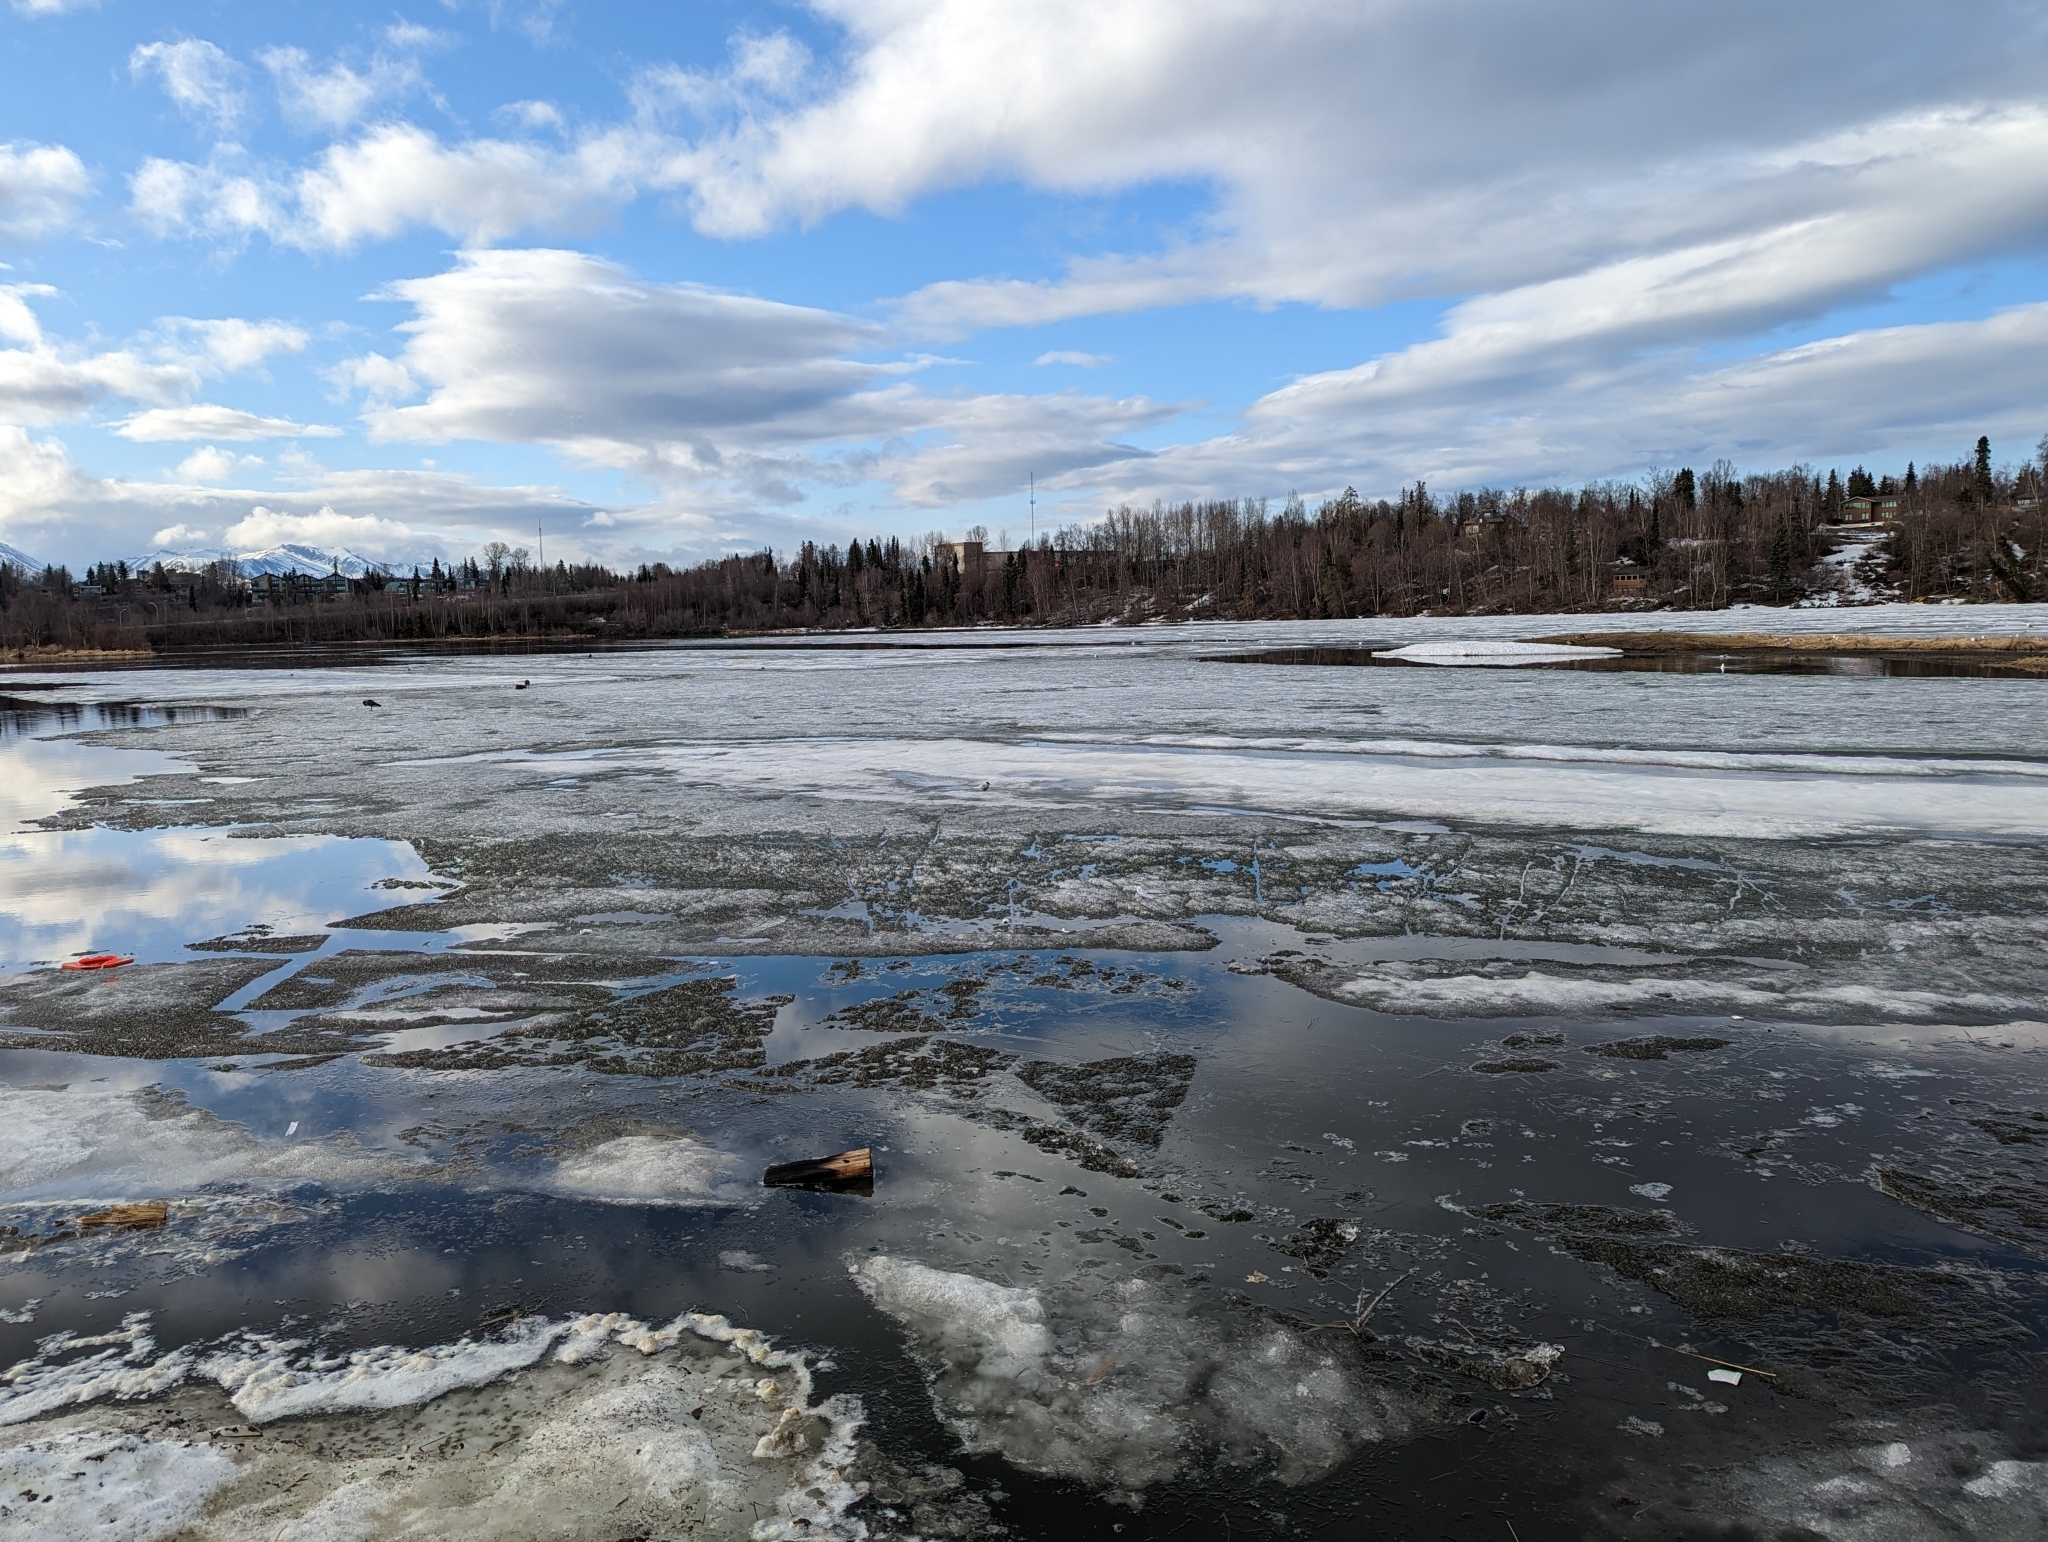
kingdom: Animalia
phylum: Chordata
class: Aves
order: Charadriiformes
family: Laridae
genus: Sterna
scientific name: Sterna paradisaea
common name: Arctic tern
